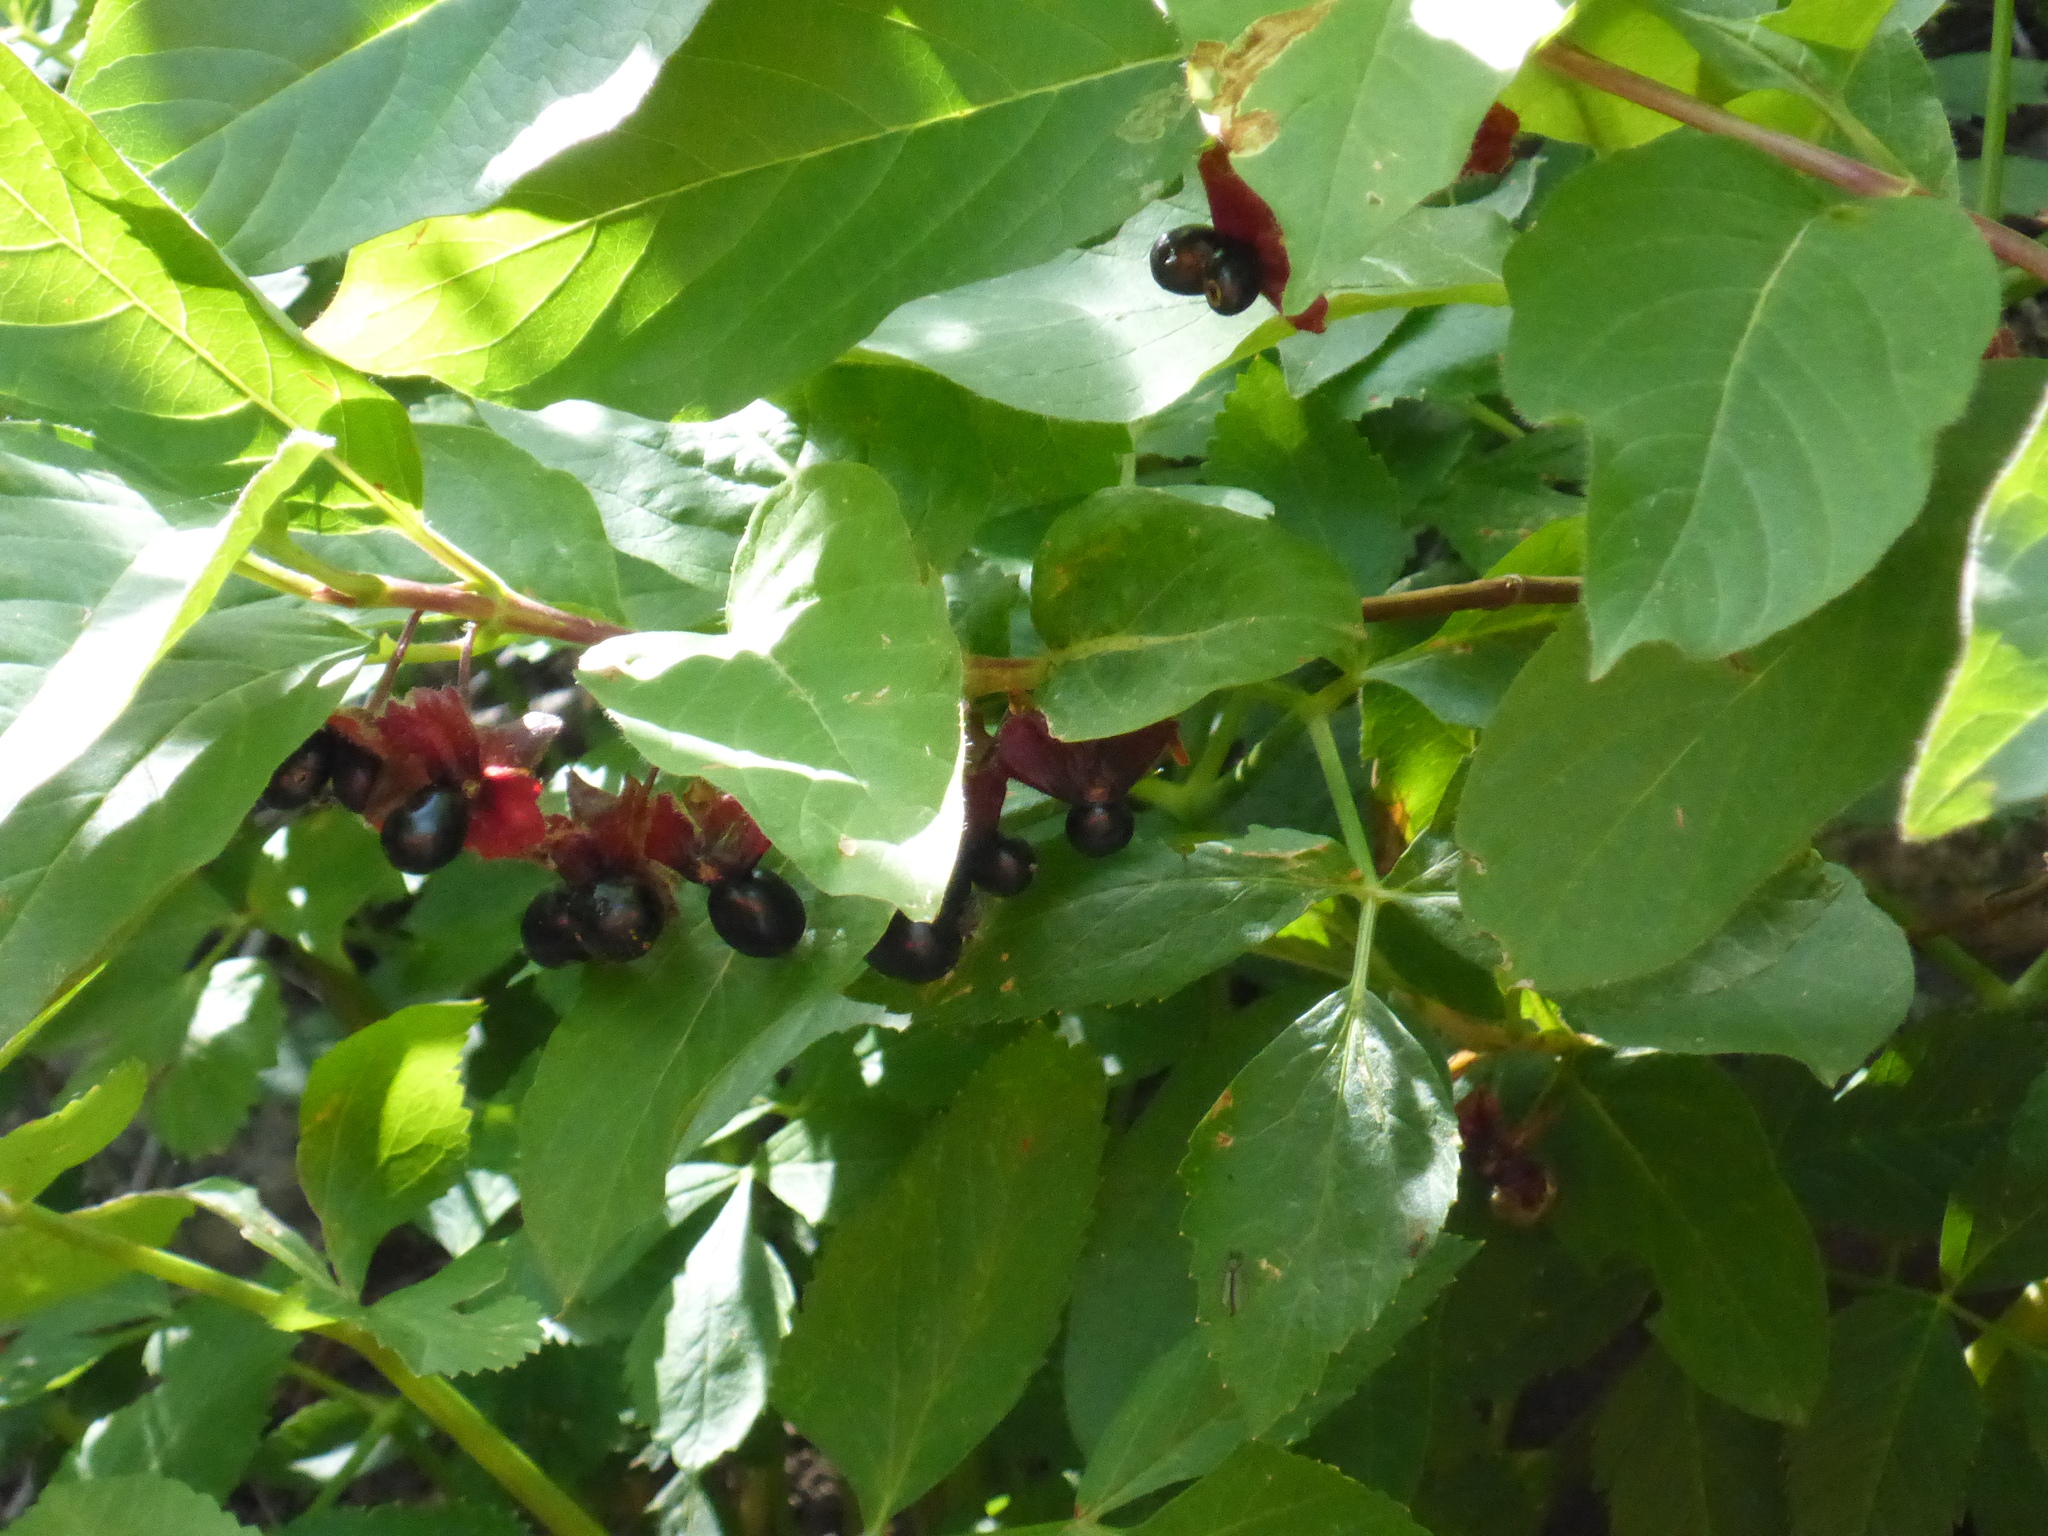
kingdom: Plantae
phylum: Tracheophyta
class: Magnoliopsida
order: Dipsacales
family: Caprifoliaceae
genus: Lonicera
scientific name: Lonicera involucrata
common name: Californian honeysuckle
